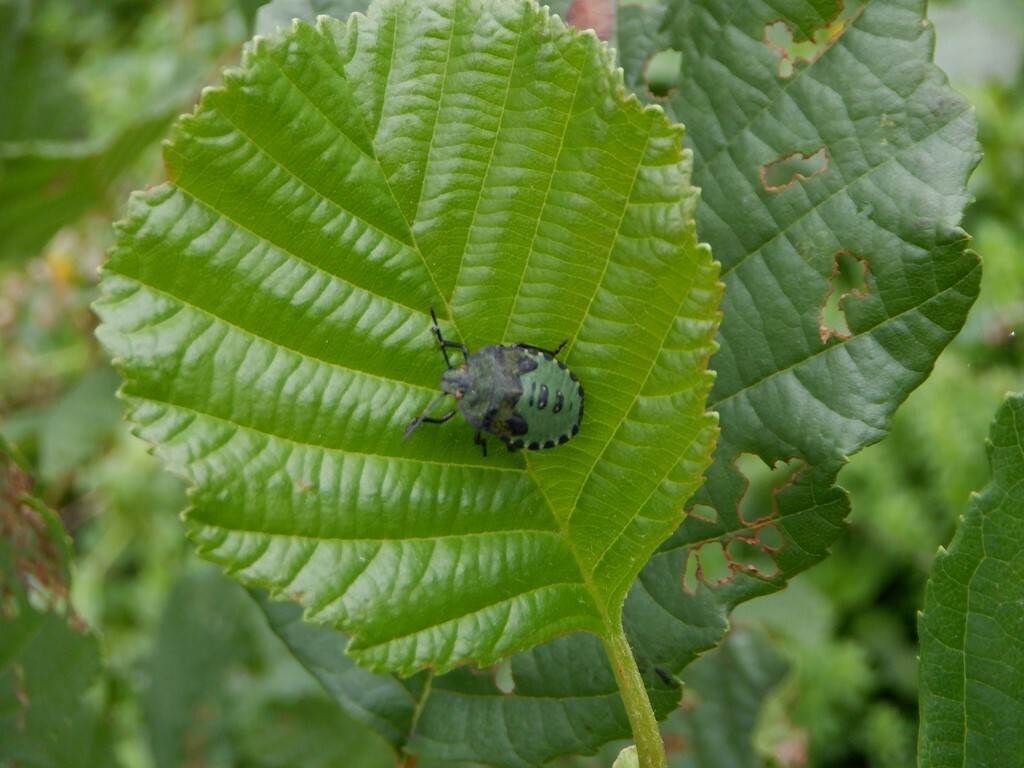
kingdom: Animalia
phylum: Arthropoda
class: Insecta
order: Hemiptera
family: Pentatomidae
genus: Palomena
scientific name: Palomena prasina
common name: Green shieldbug
